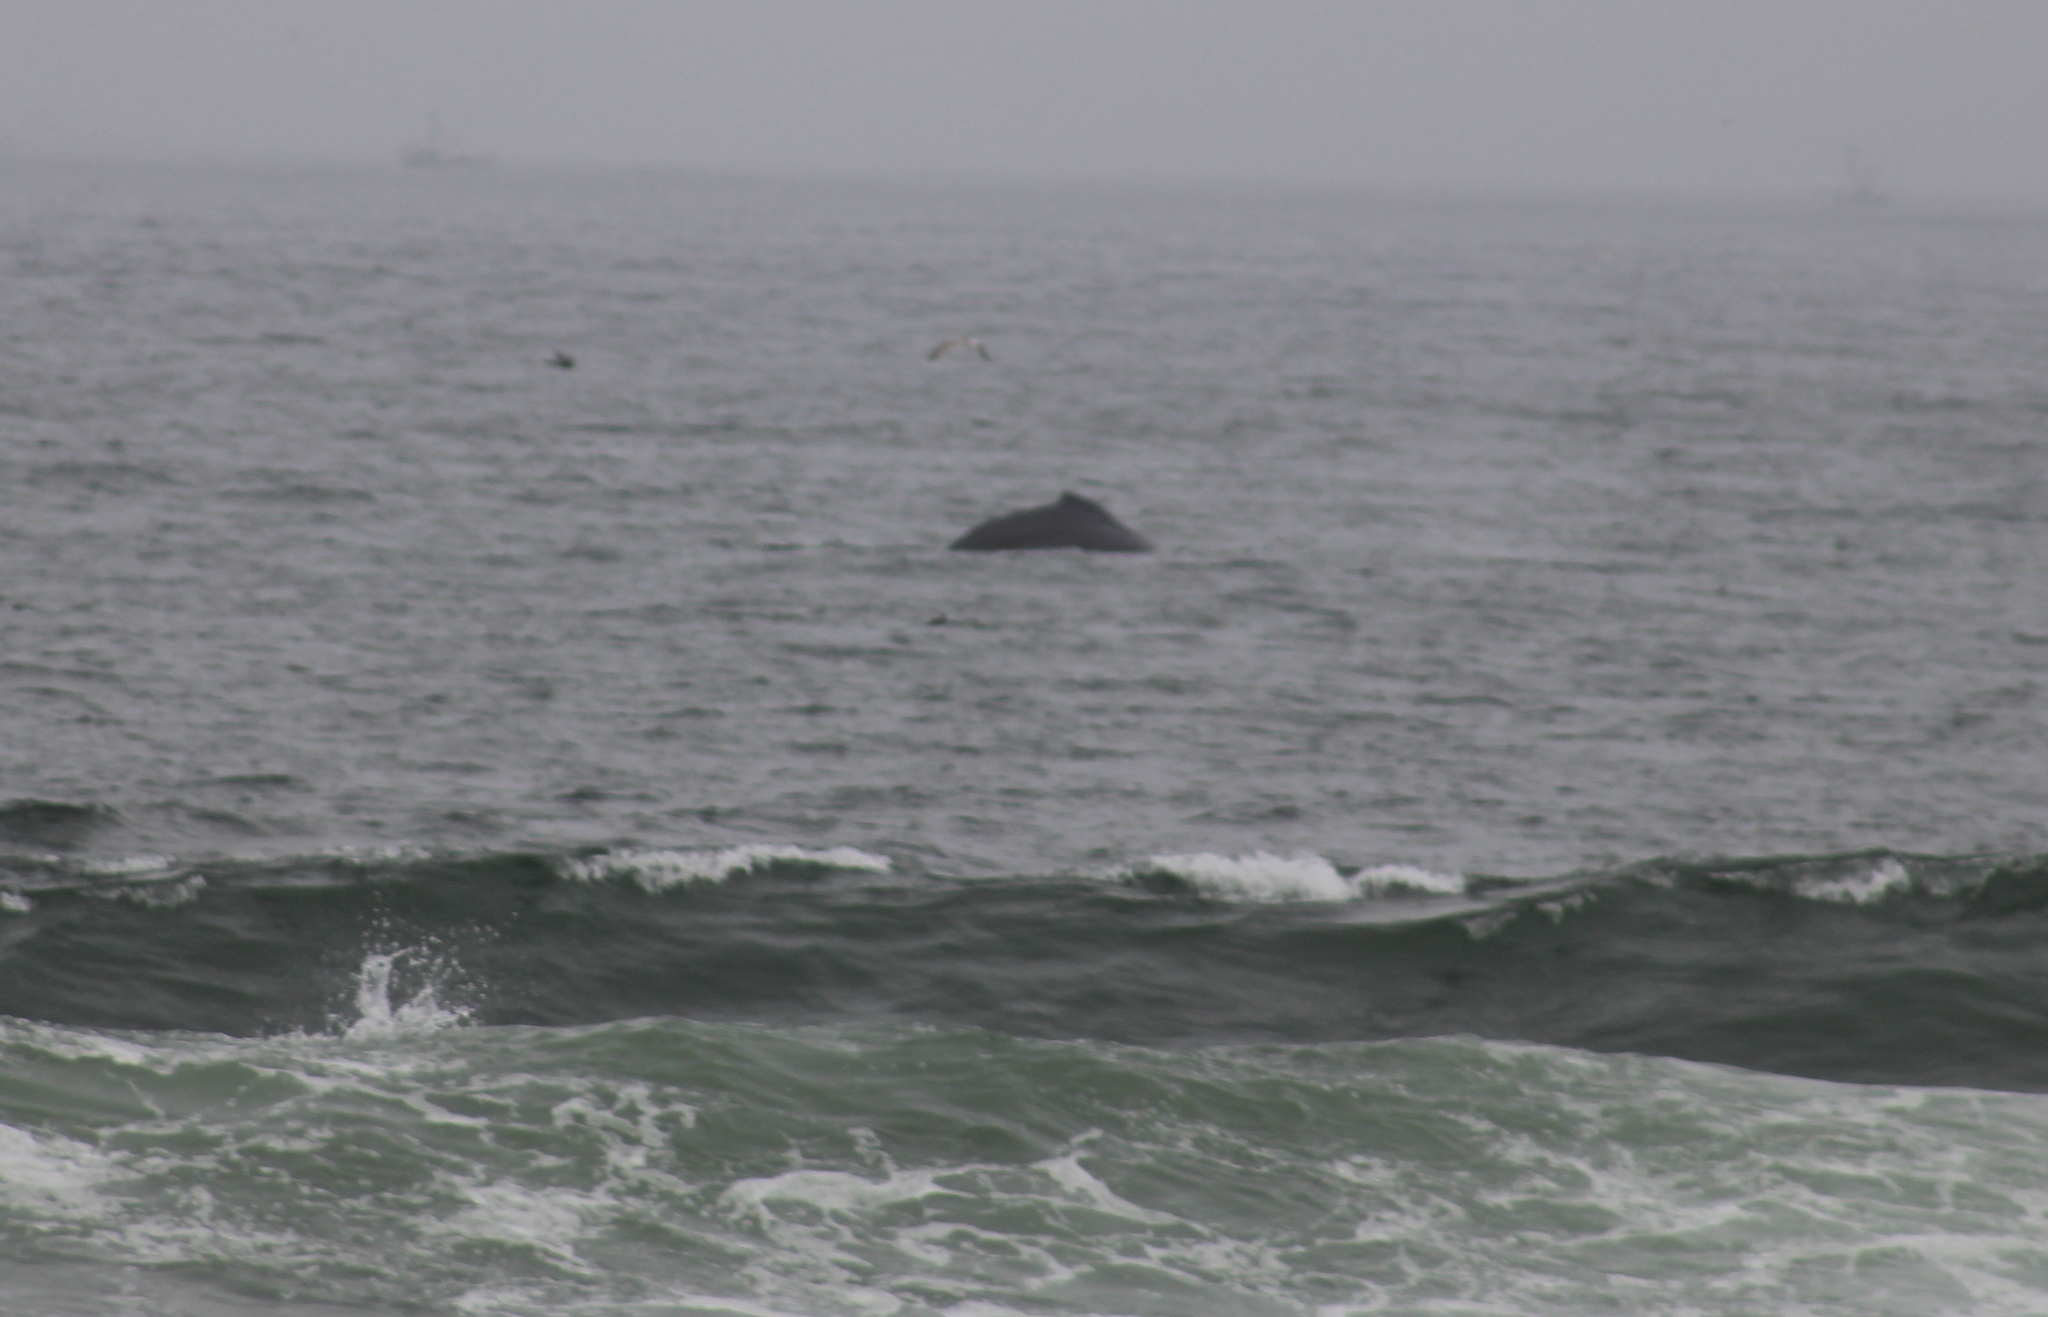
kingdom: Animalia
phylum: Chordata
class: Mammalia
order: Cetacea
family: Balaenopteridae
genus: Megaptera
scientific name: Megaptera novaeangliae
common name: Humpback whale
